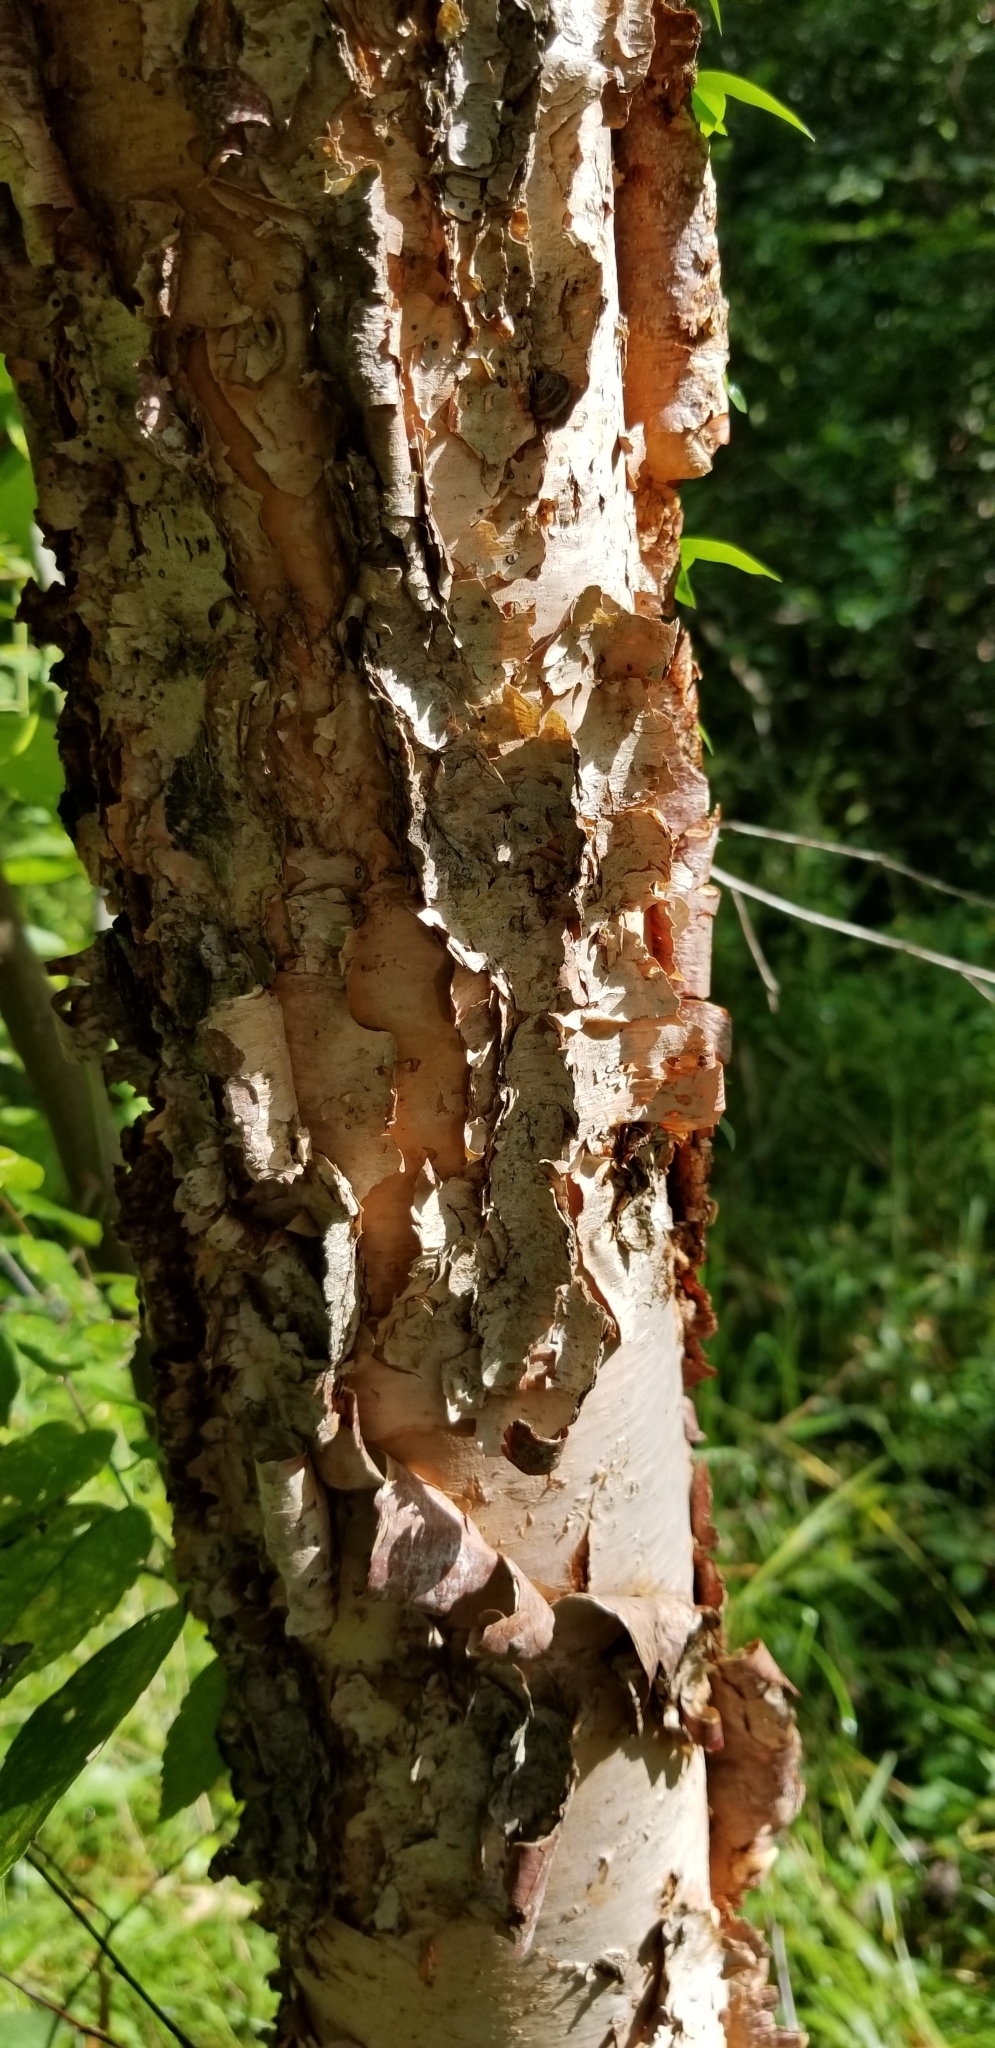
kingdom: Plantae
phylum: Tracheophyta
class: Magnoliopsida
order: Fagales
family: Betulaceae
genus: Betula
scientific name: Betula nigra
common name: Black birch
